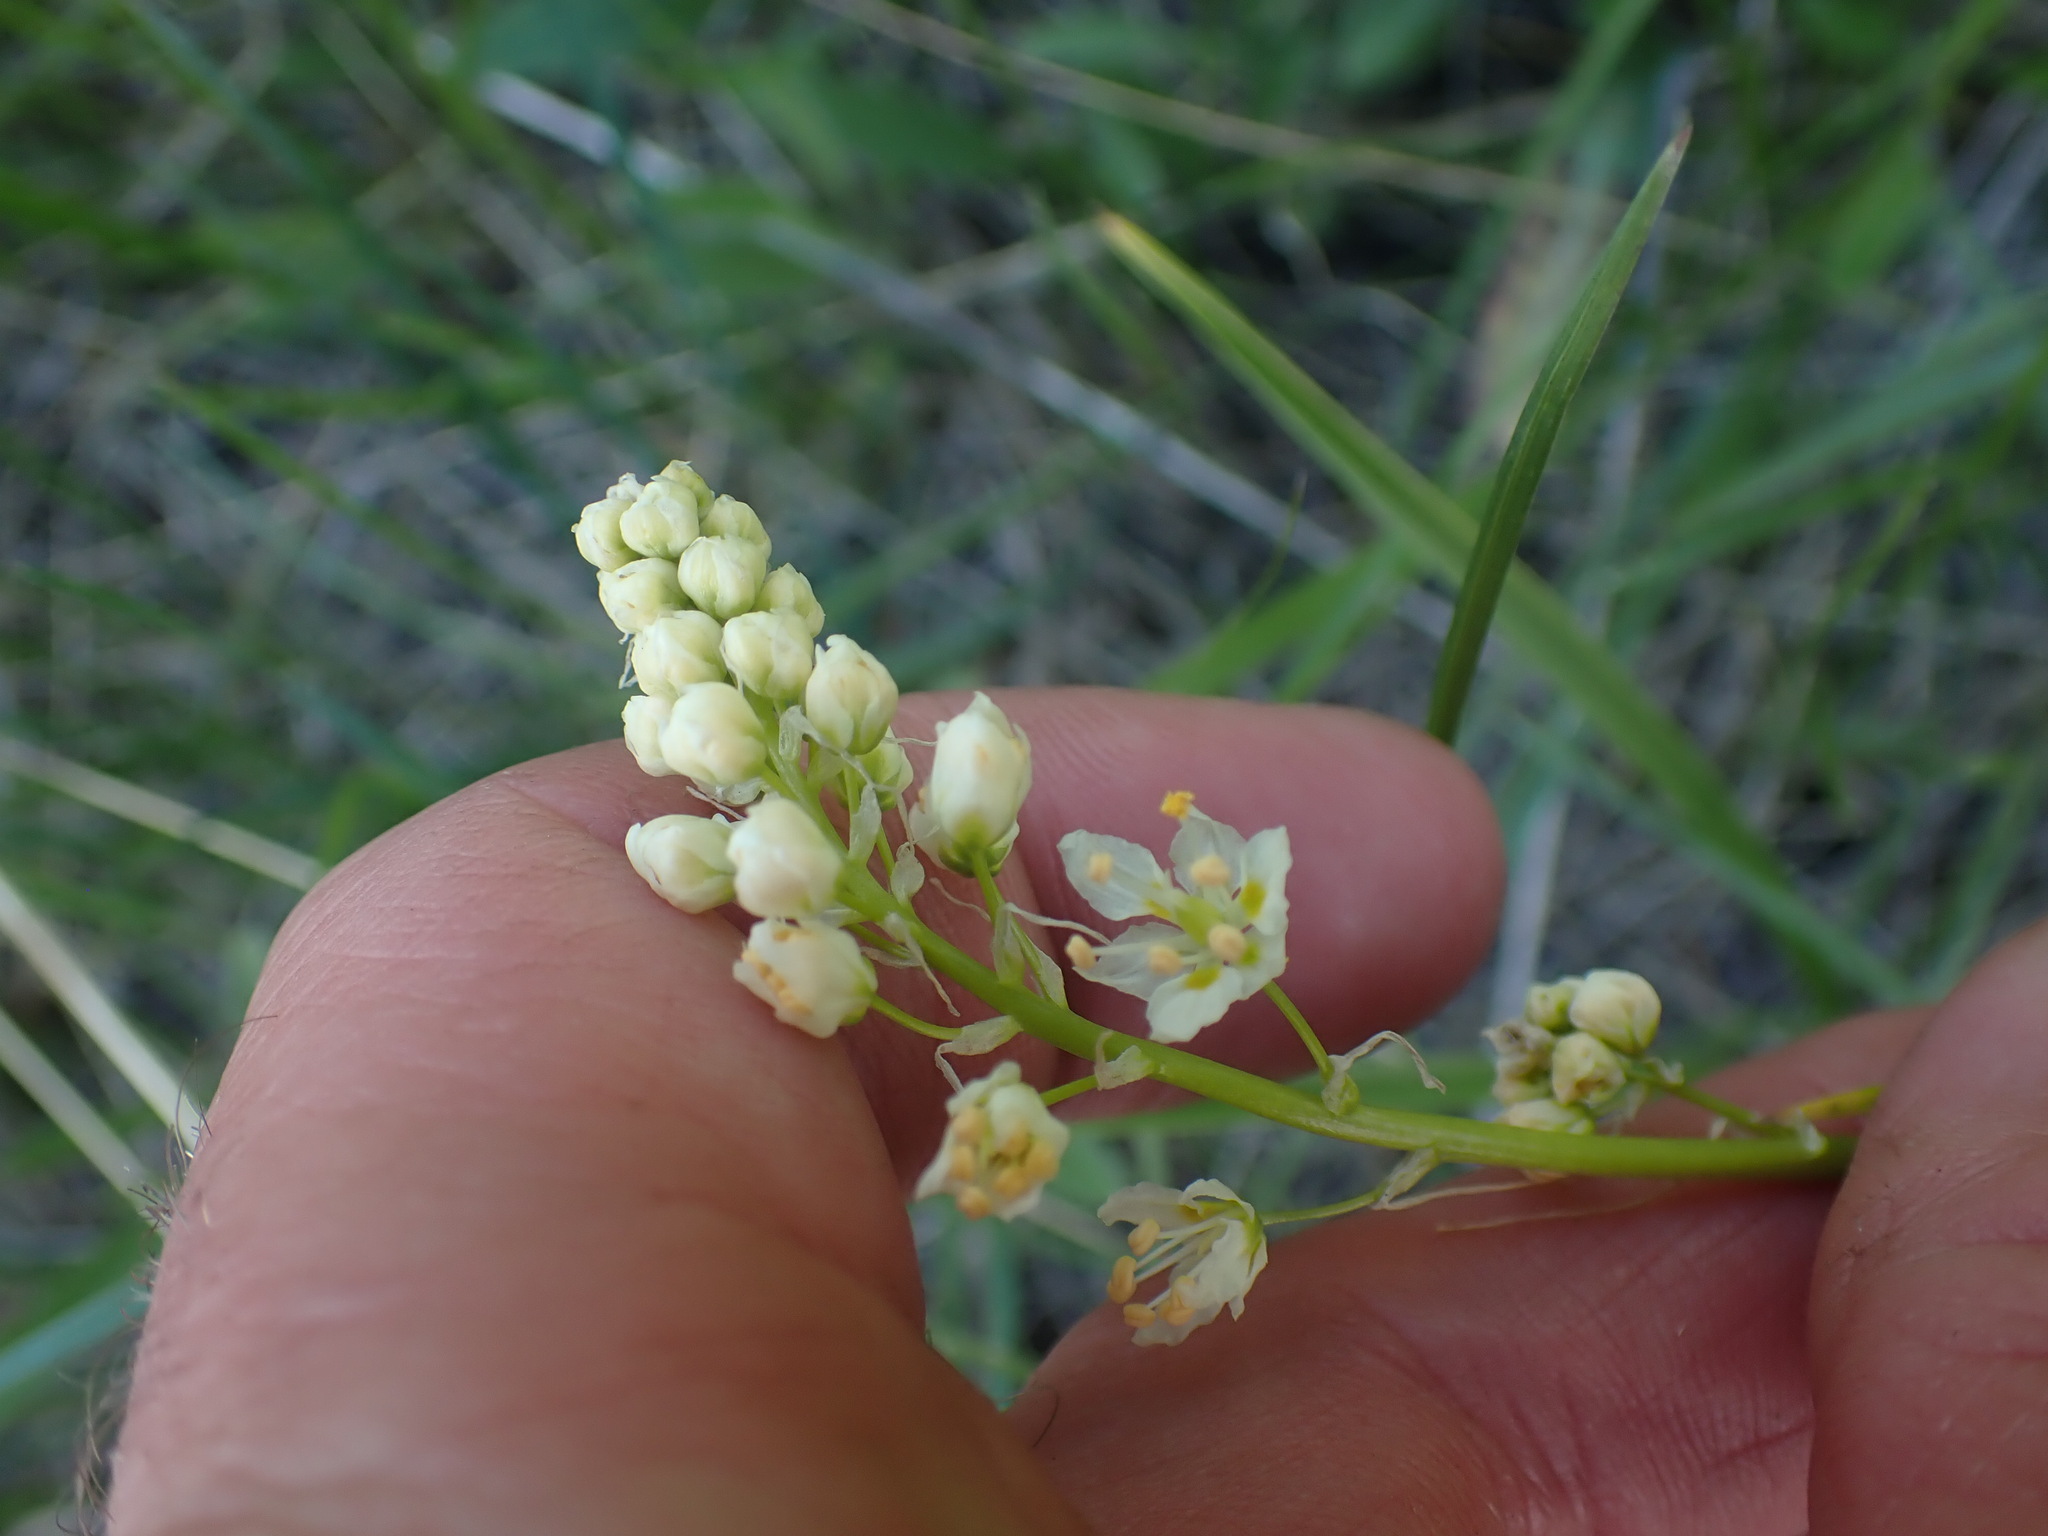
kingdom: Plantae
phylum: Tracheophyta
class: Liliopsida
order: Liliales
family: Melanthiaceae
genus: Toxicoscordion
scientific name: Toxicoscordion paniculatum
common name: Foothill death camas
